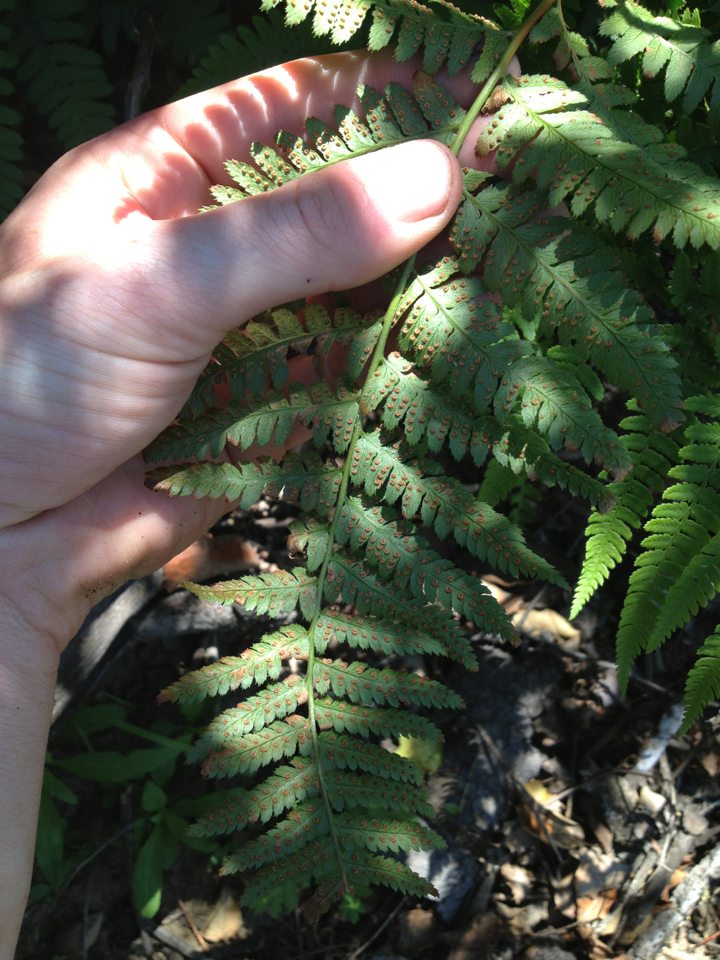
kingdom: Plantae
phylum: Tracheophyta
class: Polypodiopsida
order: Polypodiales
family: Dryopteridaceae
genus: Dryopteris
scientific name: Dryopteris arguta
